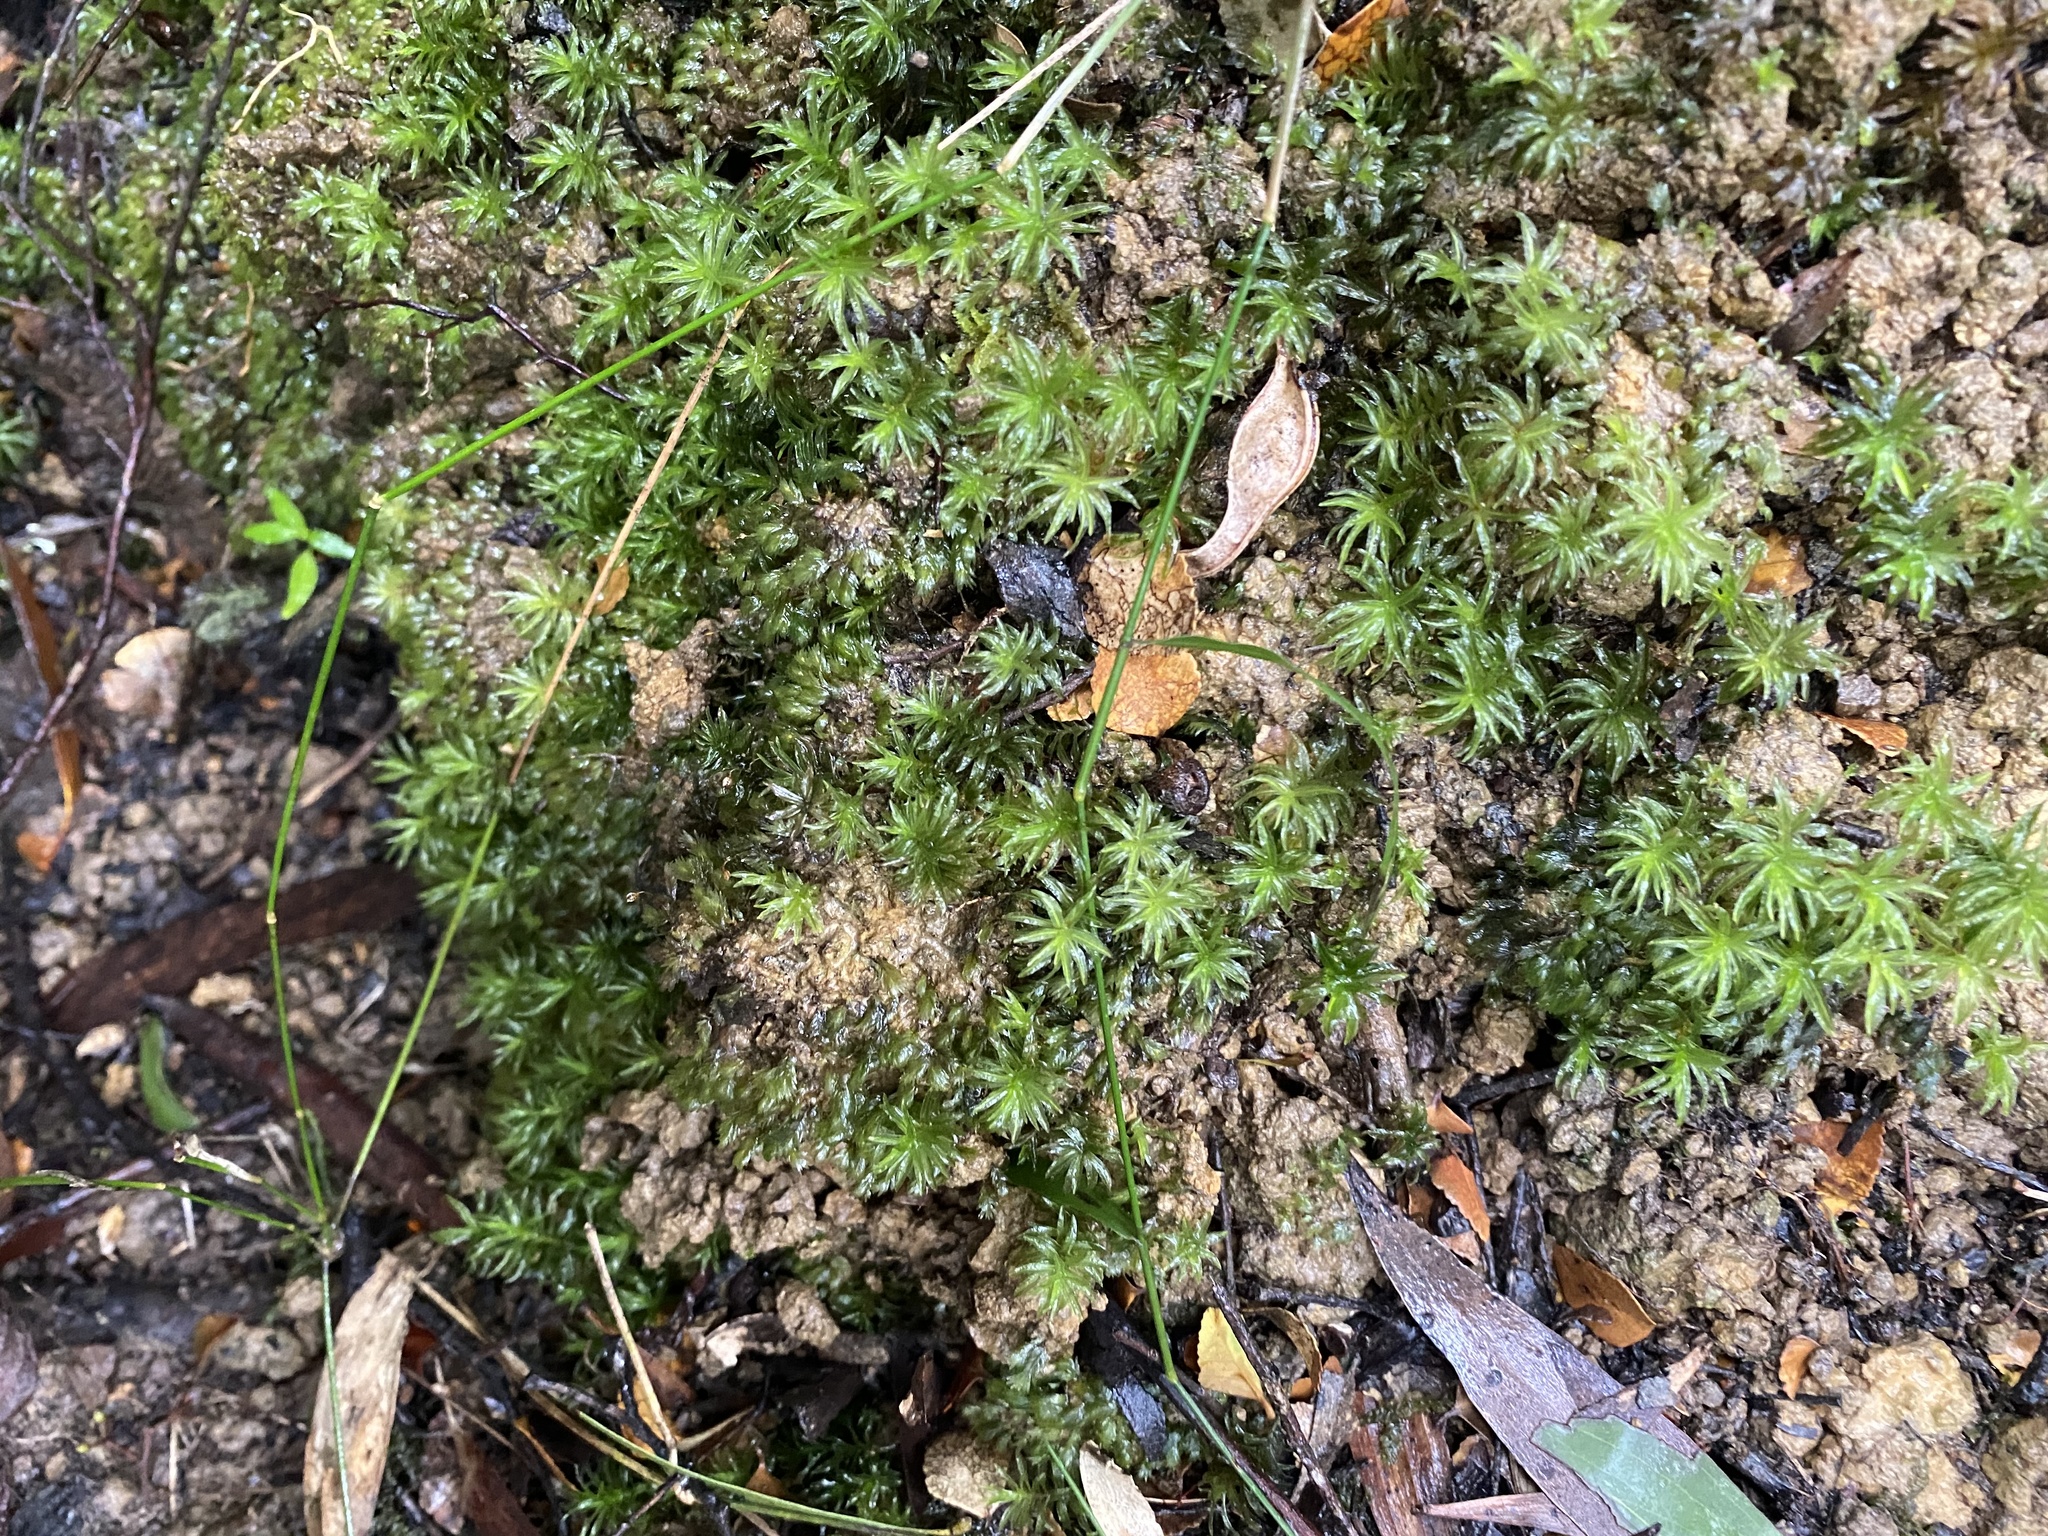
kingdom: Plantae
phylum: Bryophyta
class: Polytrichopsida
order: Polytrichales
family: Polytrichaceae
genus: Atrichum
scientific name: Atrichum androgynum
